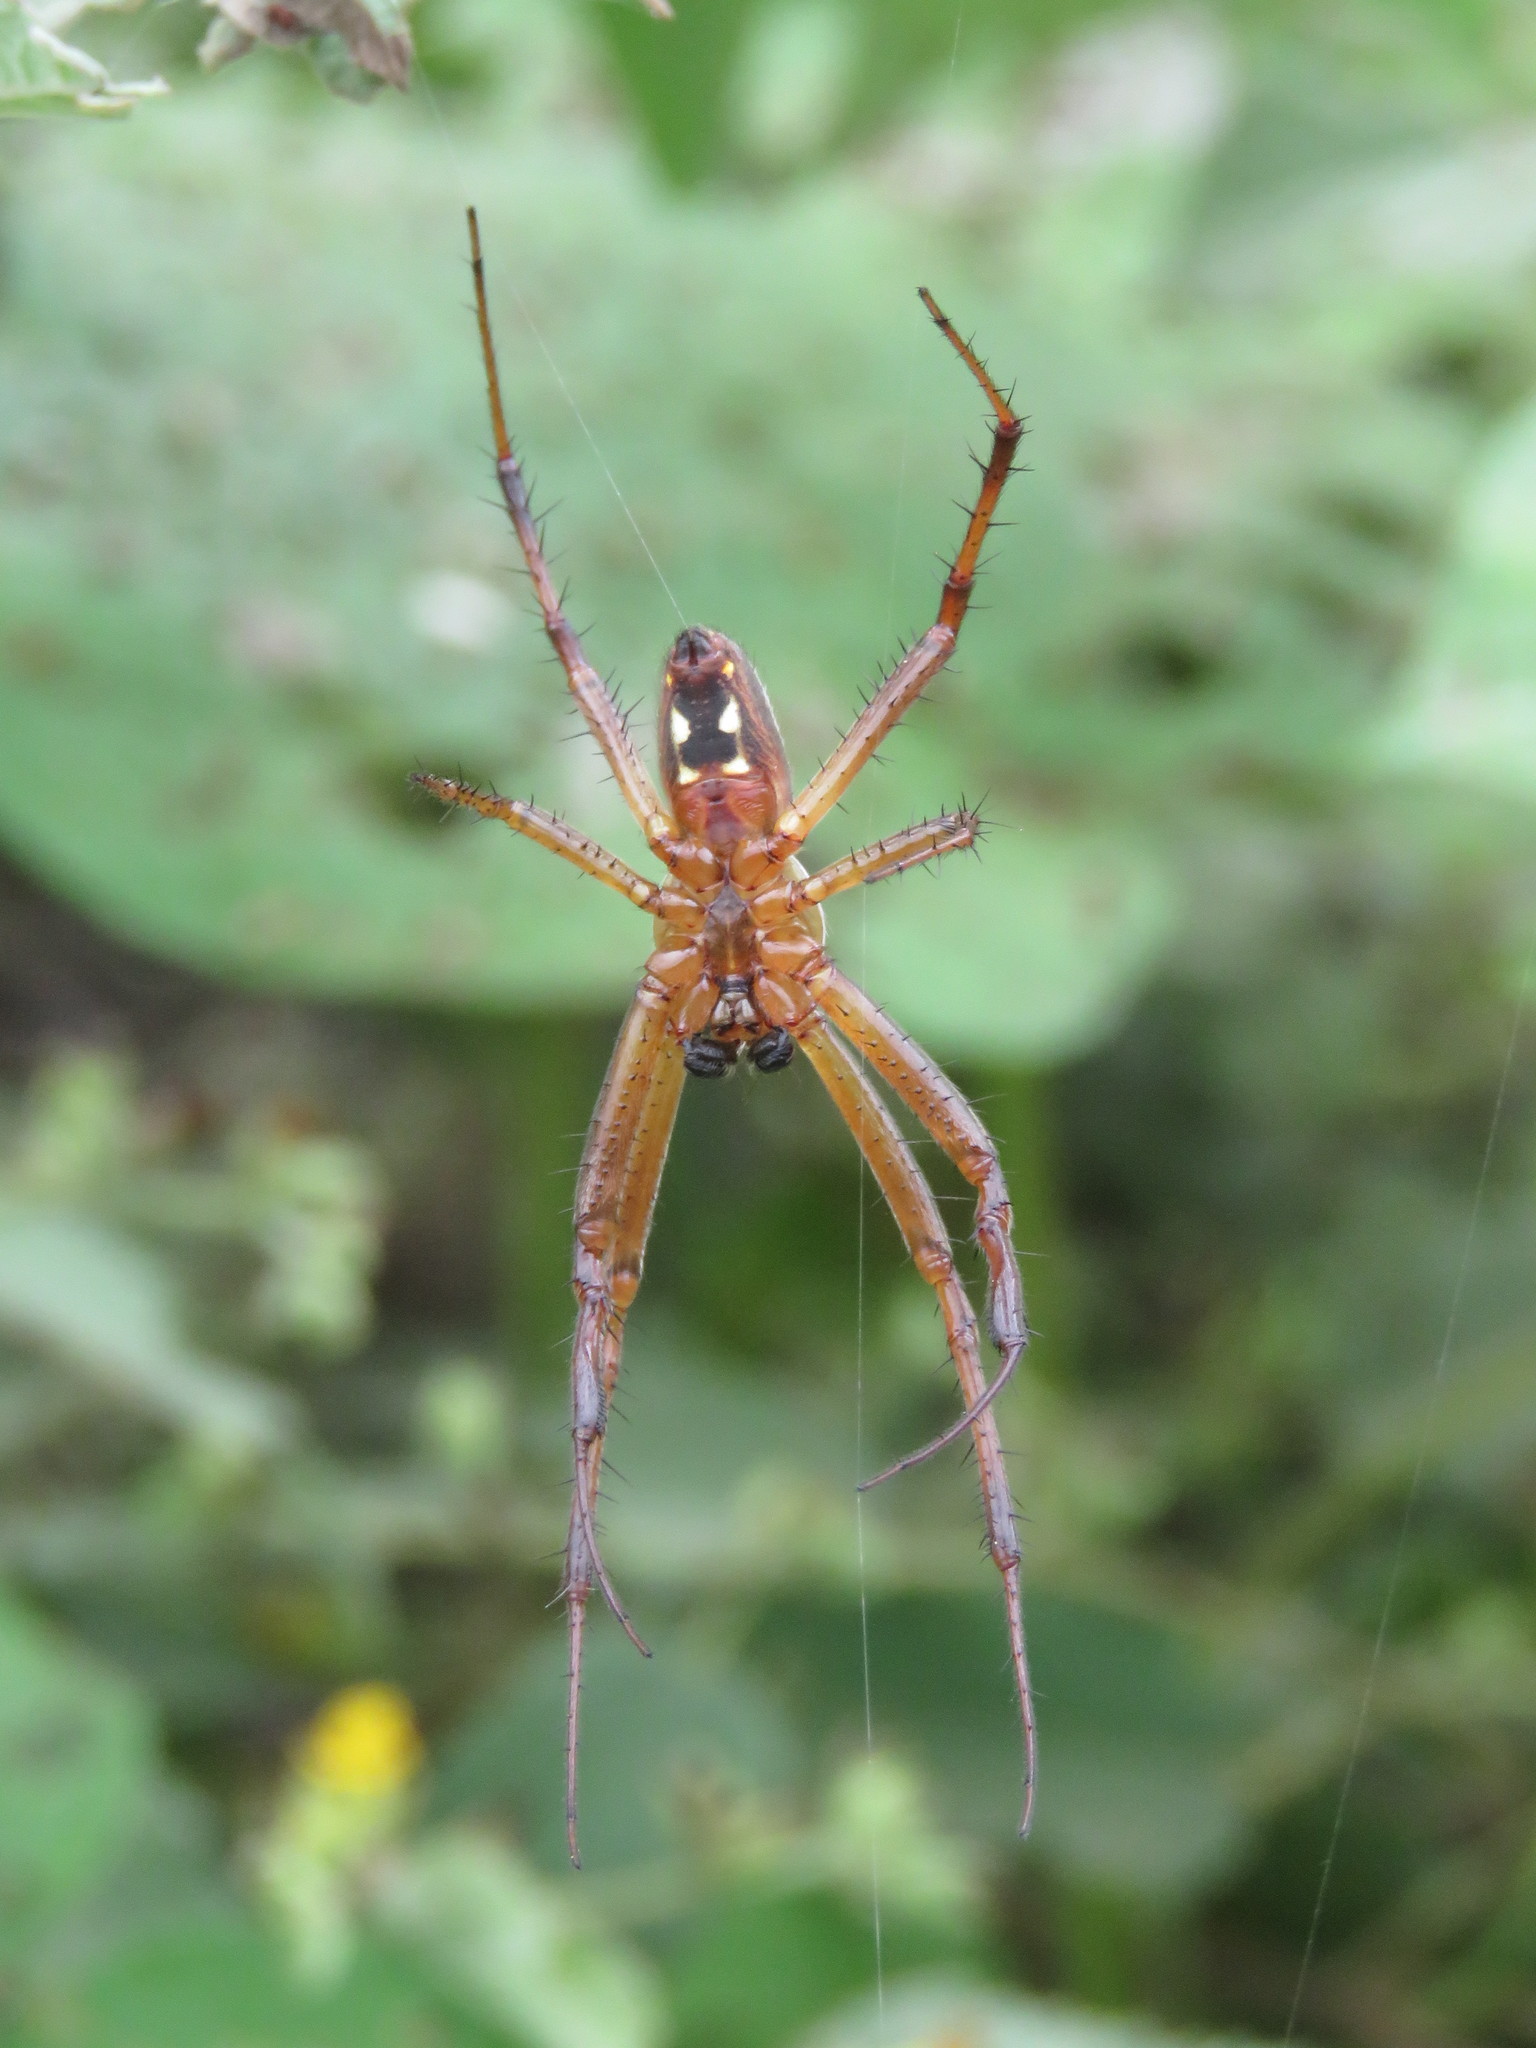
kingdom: Animalia
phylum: Arthropoda
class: Arachnida
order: Araneae
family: Araneidae
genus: Neoscona
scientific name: Neoscona oaxacensis
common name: Orb weavers
